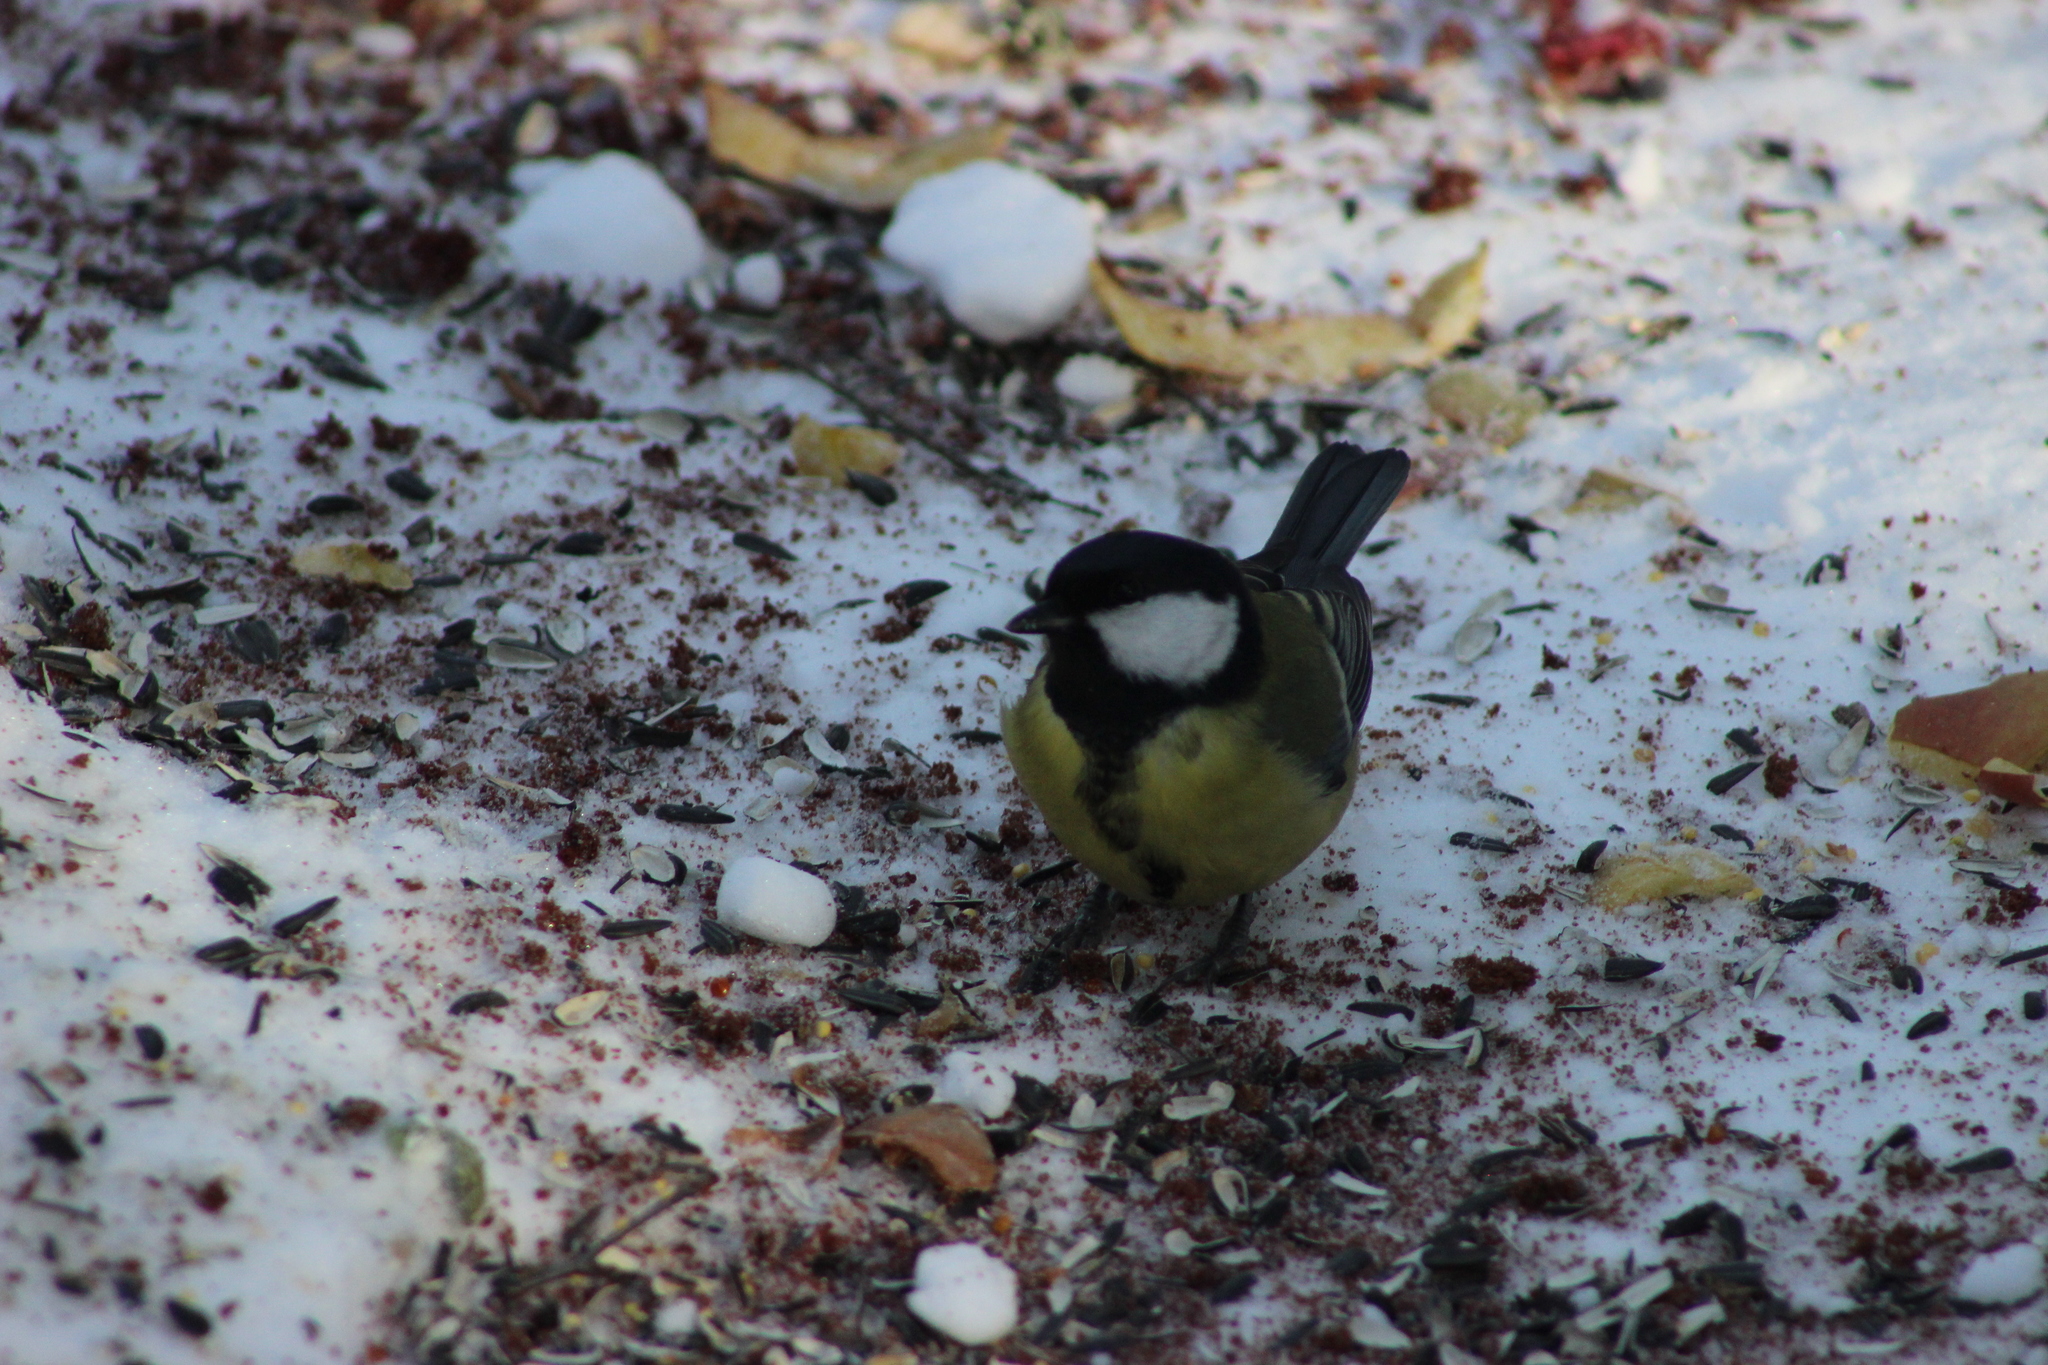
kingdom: Animalia
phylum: Chordata
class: Aves
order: Passeriformes
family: Paridae
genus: Parus
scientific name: Parus major
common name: Great tit
